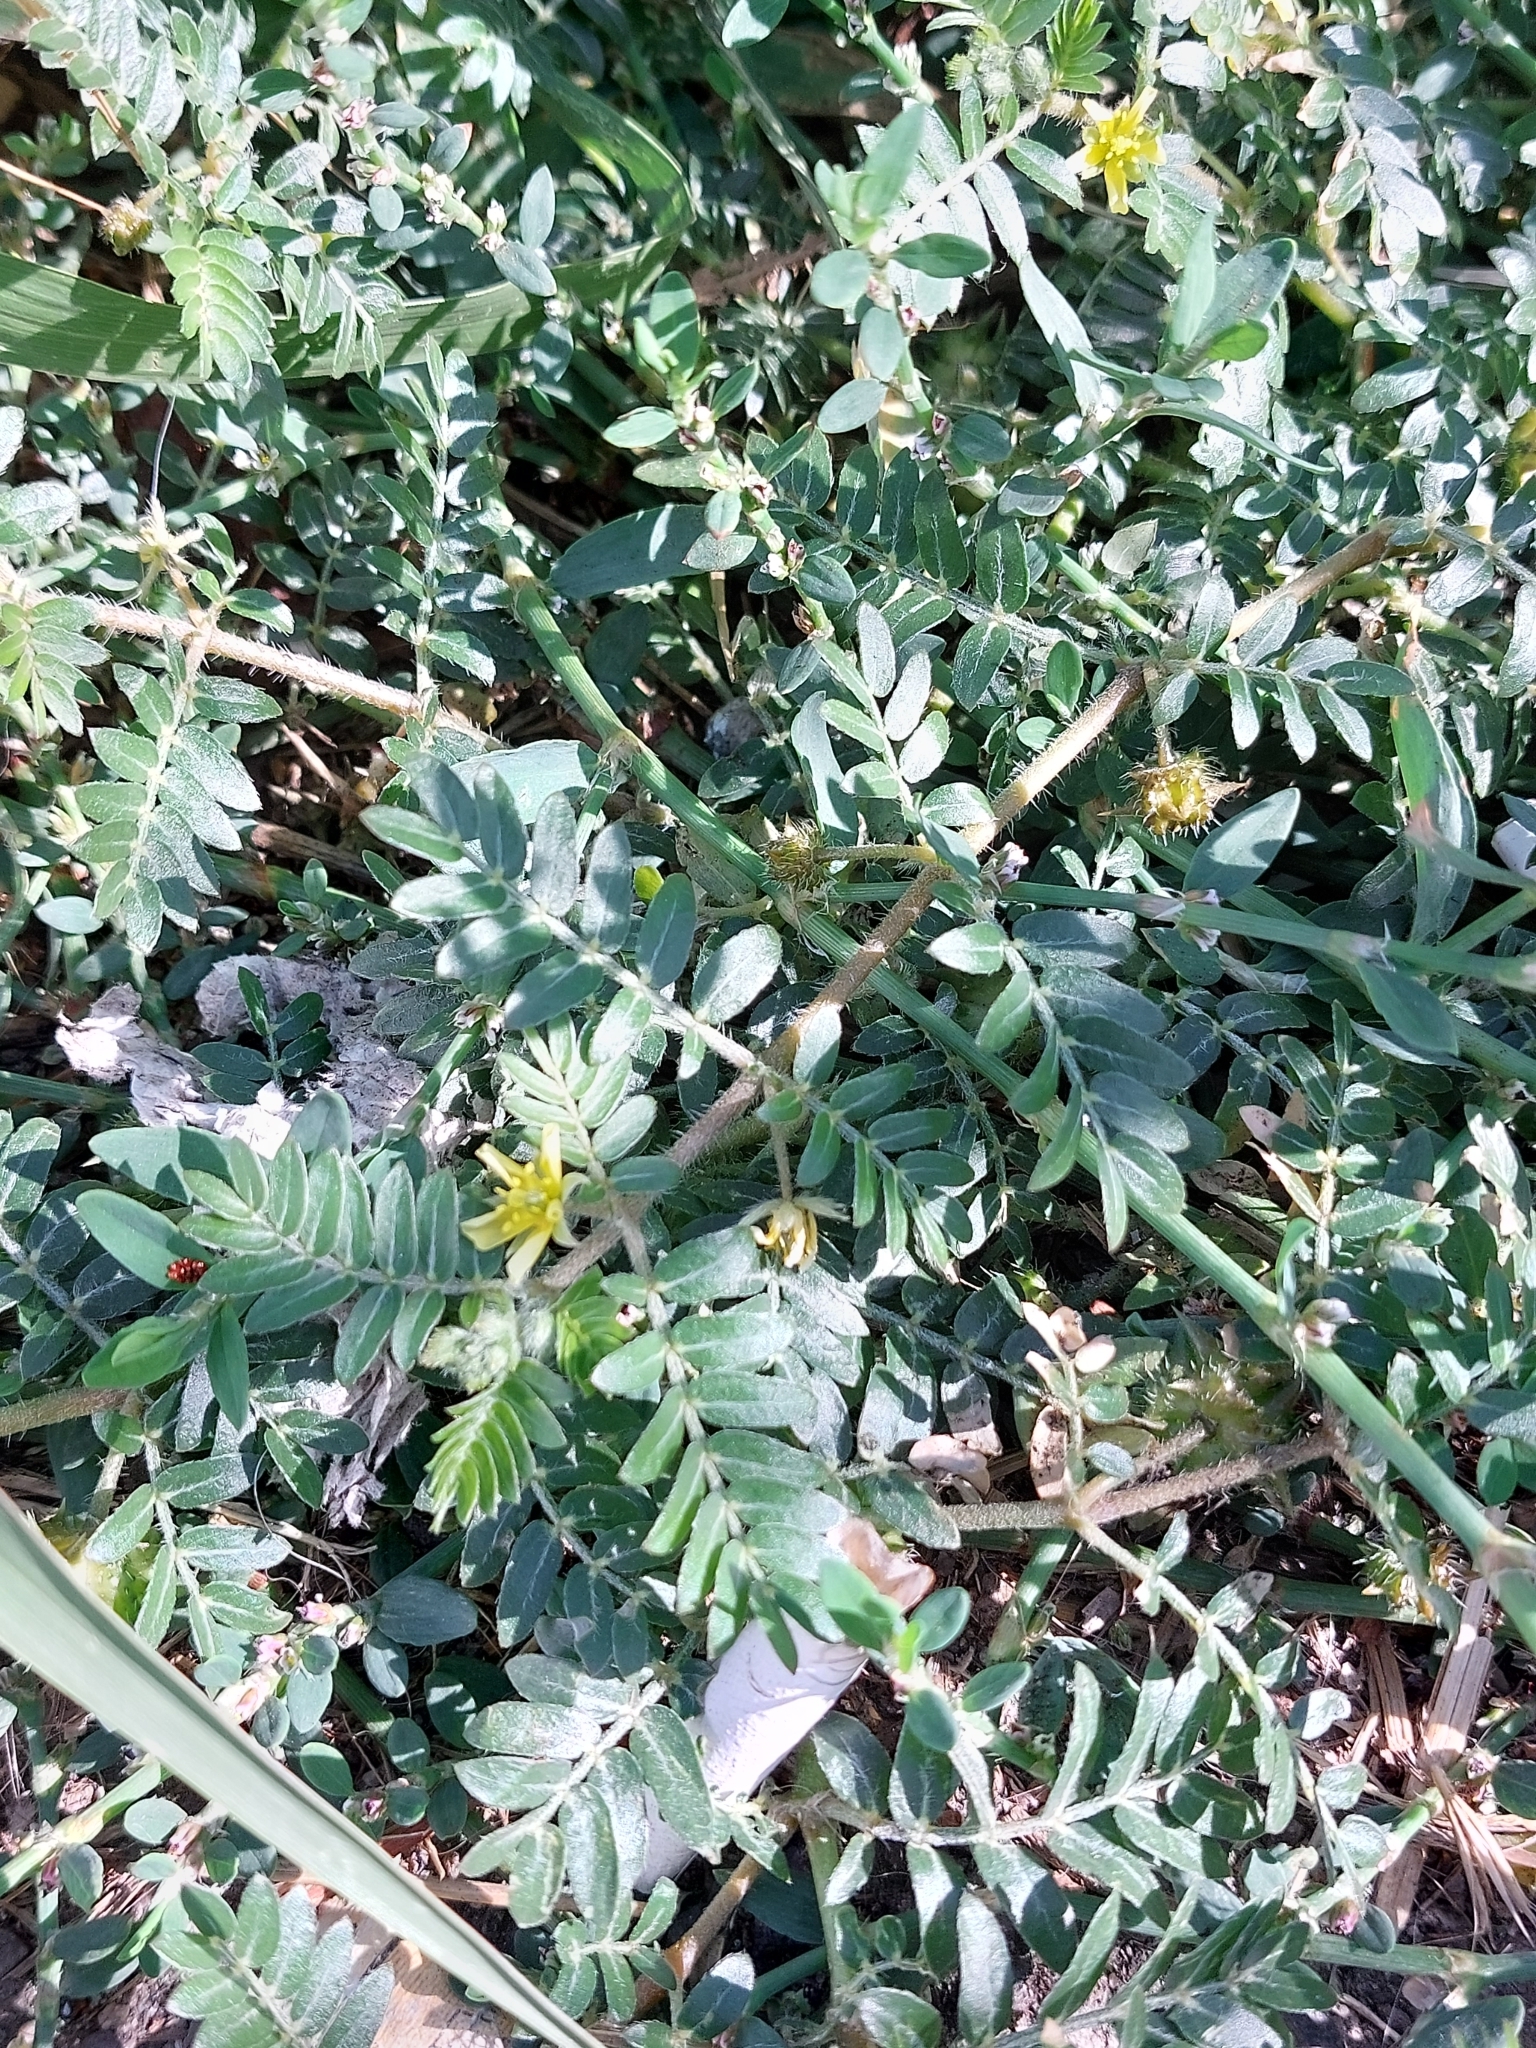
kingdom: Plantae
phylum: Tracheophyta
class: Magnoliopsida
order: Zygophyllales
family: Zygophyllaceae
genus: Tribulus
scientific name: Tribulus terrestris
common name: Puncturevine
